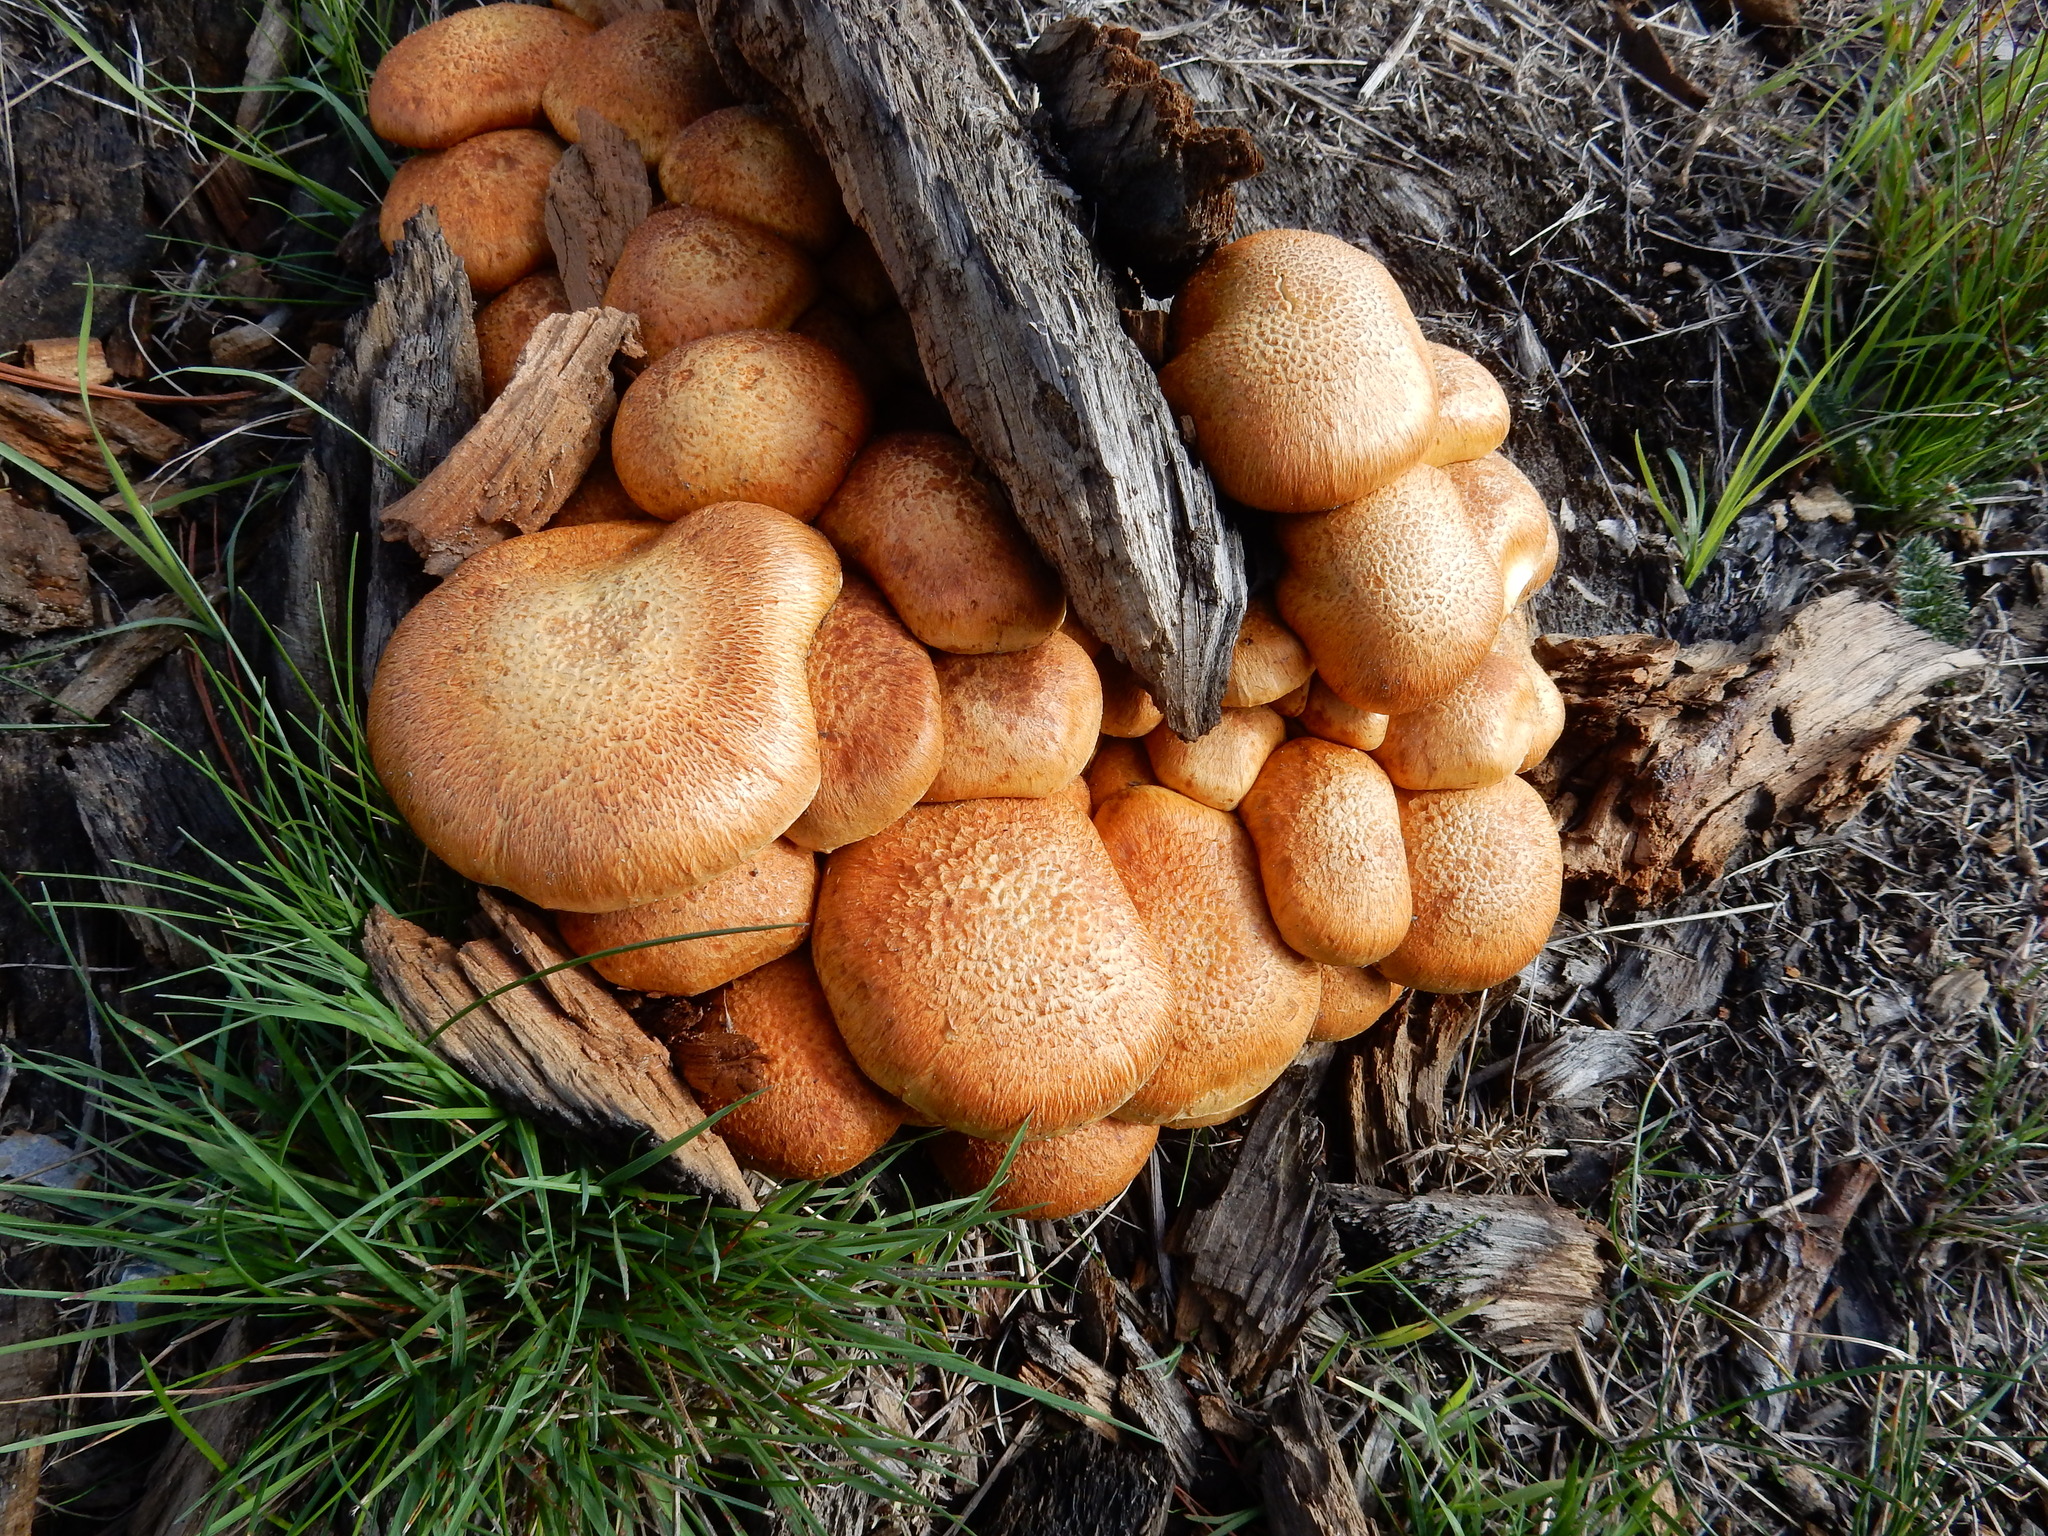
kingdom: Fungi
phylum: Basidiomycota
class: Agaricomycetes
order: Agaricales
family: Hymenogastraceae
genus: Gymnopilus
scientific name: Gymnopilus junonius
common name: Spectacular rustgill
